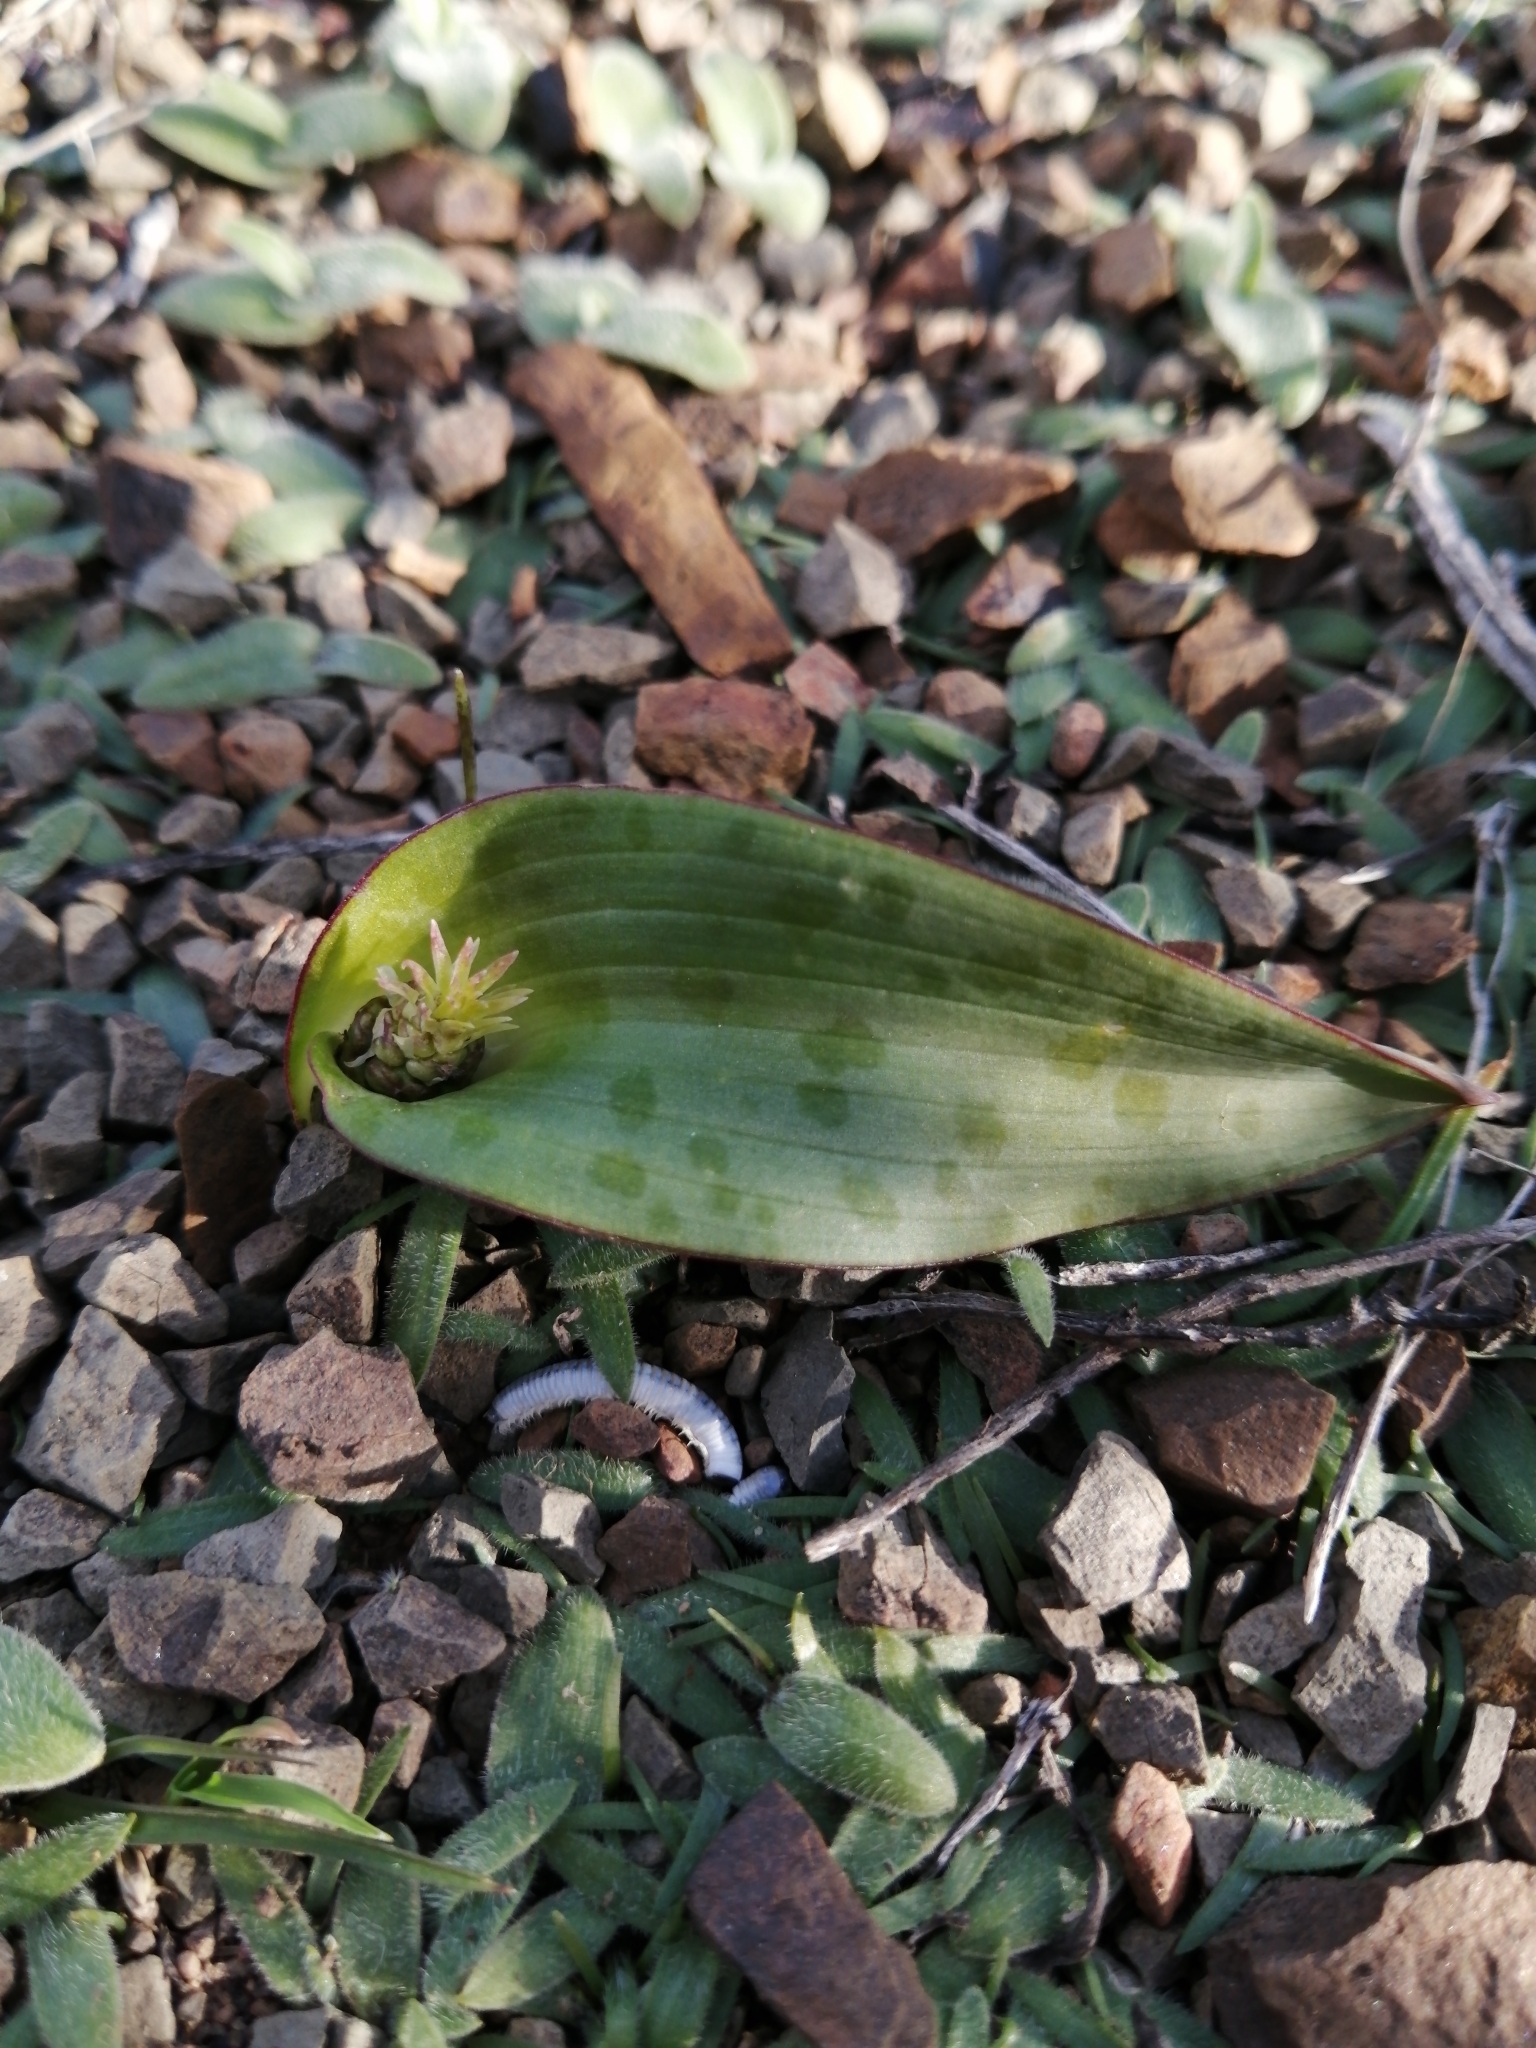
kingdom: Plantae
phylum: Tracheophyta
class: Liliopsida
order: Asparagales
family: Asparagaceae
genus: Lachenalia
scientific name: Lachenalia aurioliae
